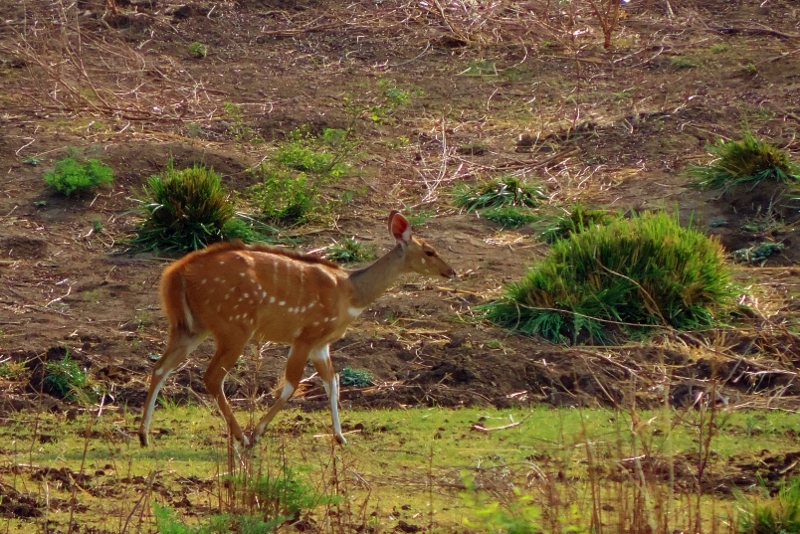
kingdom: Animalia
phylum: Chordata
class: Mammalia
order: Artiodactyla
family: Bovidae
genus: Tragelaphus
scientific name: Tragelaphus scriptus
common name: Bushbuck
